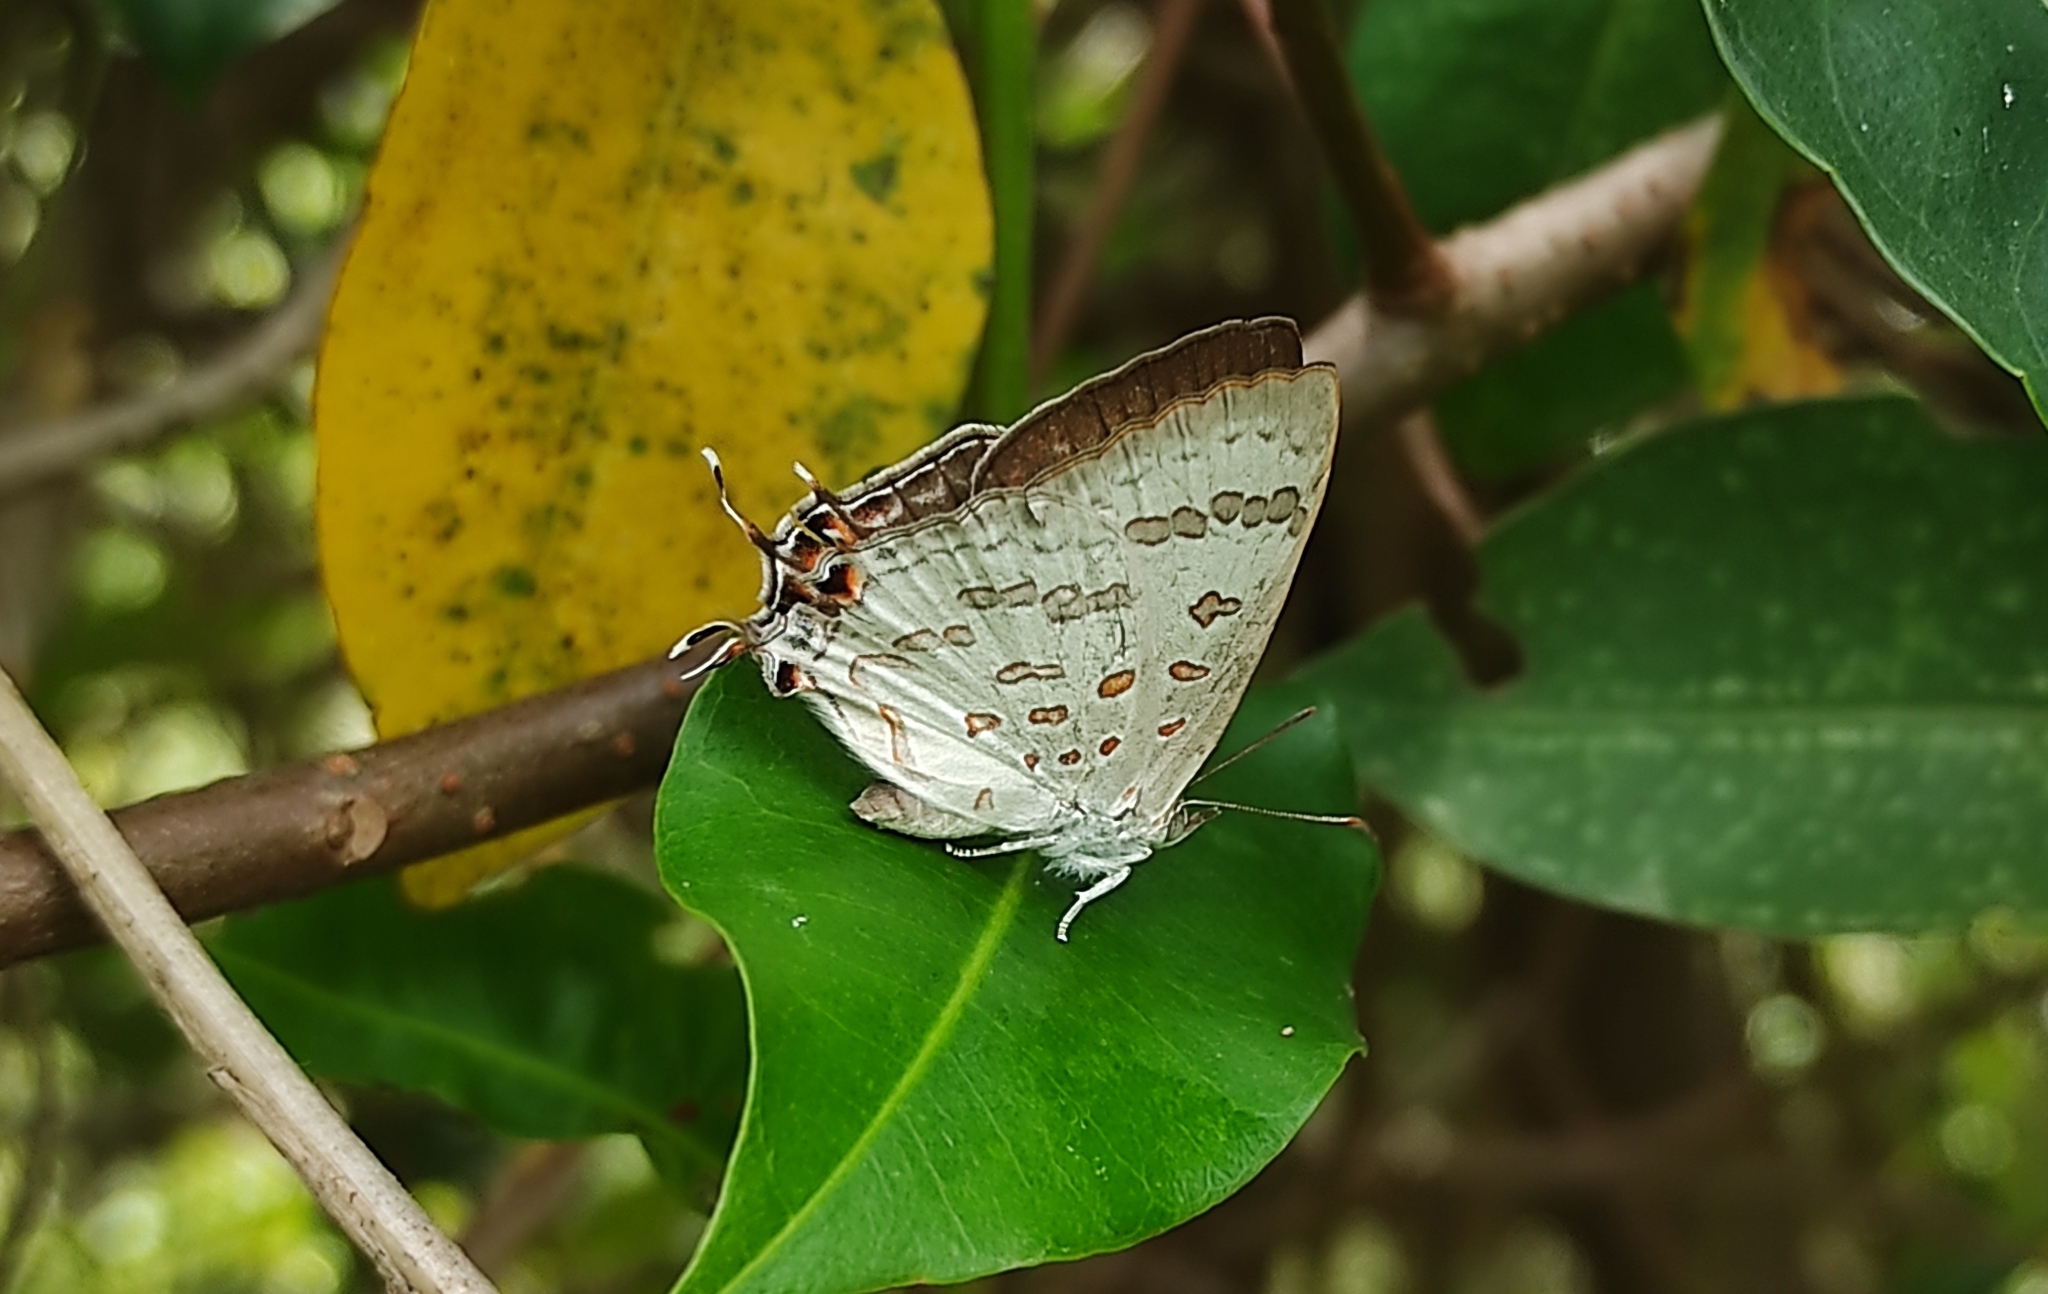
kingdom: Animalia
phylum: Arthropoda
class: Insecta
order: Lepidoptera
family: Lycaenidae
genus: Zesius
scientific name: Zesius chrysomallus
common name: Redspot
